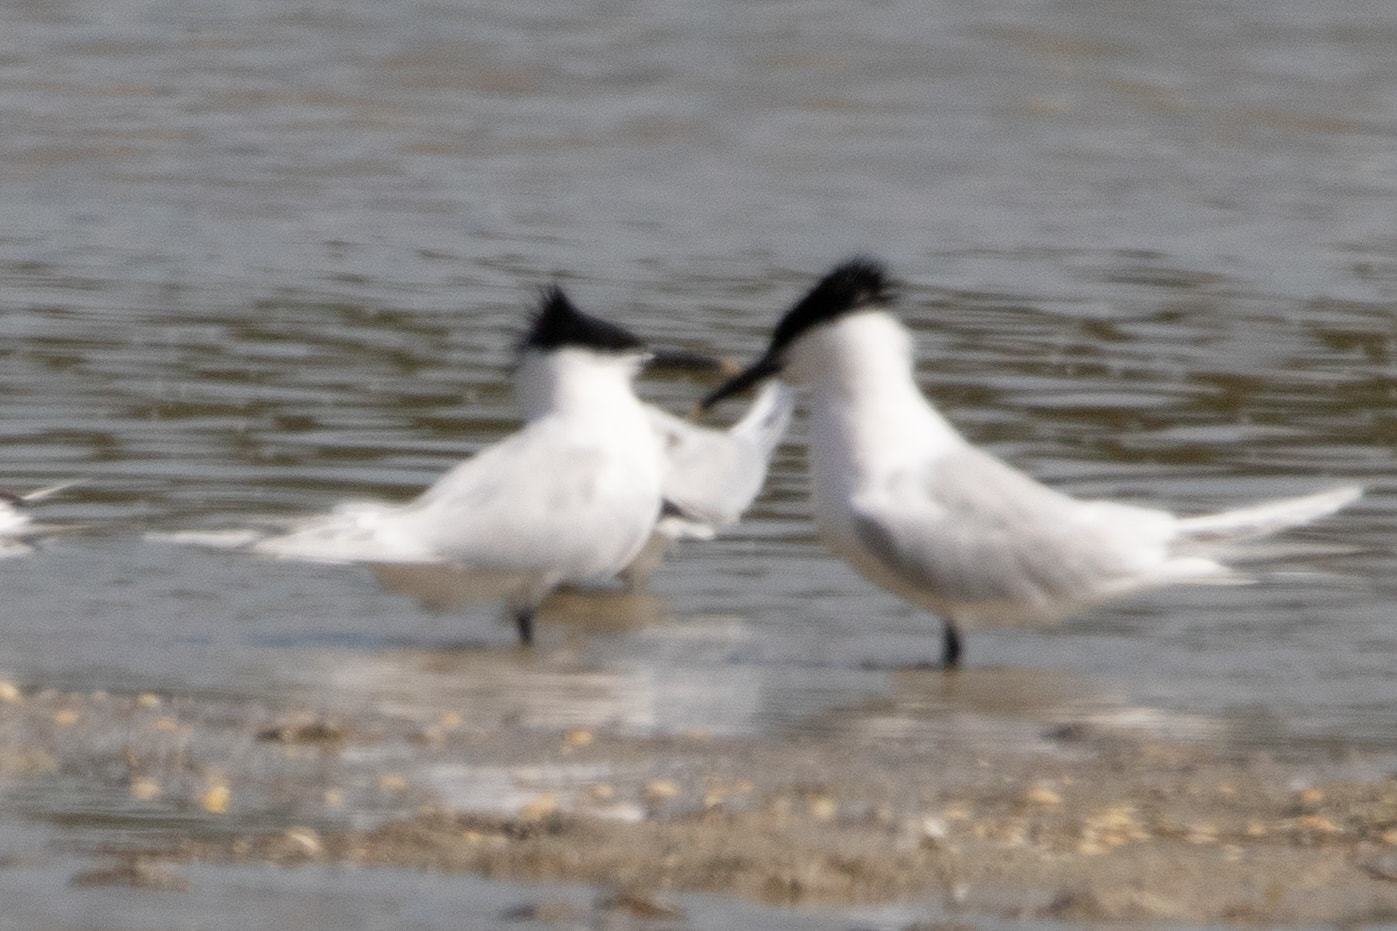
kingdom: Animalia
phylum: Chordata
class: Aves
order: Charadriiformes
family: Laridae
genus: Thalasseus
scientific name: Thalasseus sandvicensis
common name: Sandwich tern
